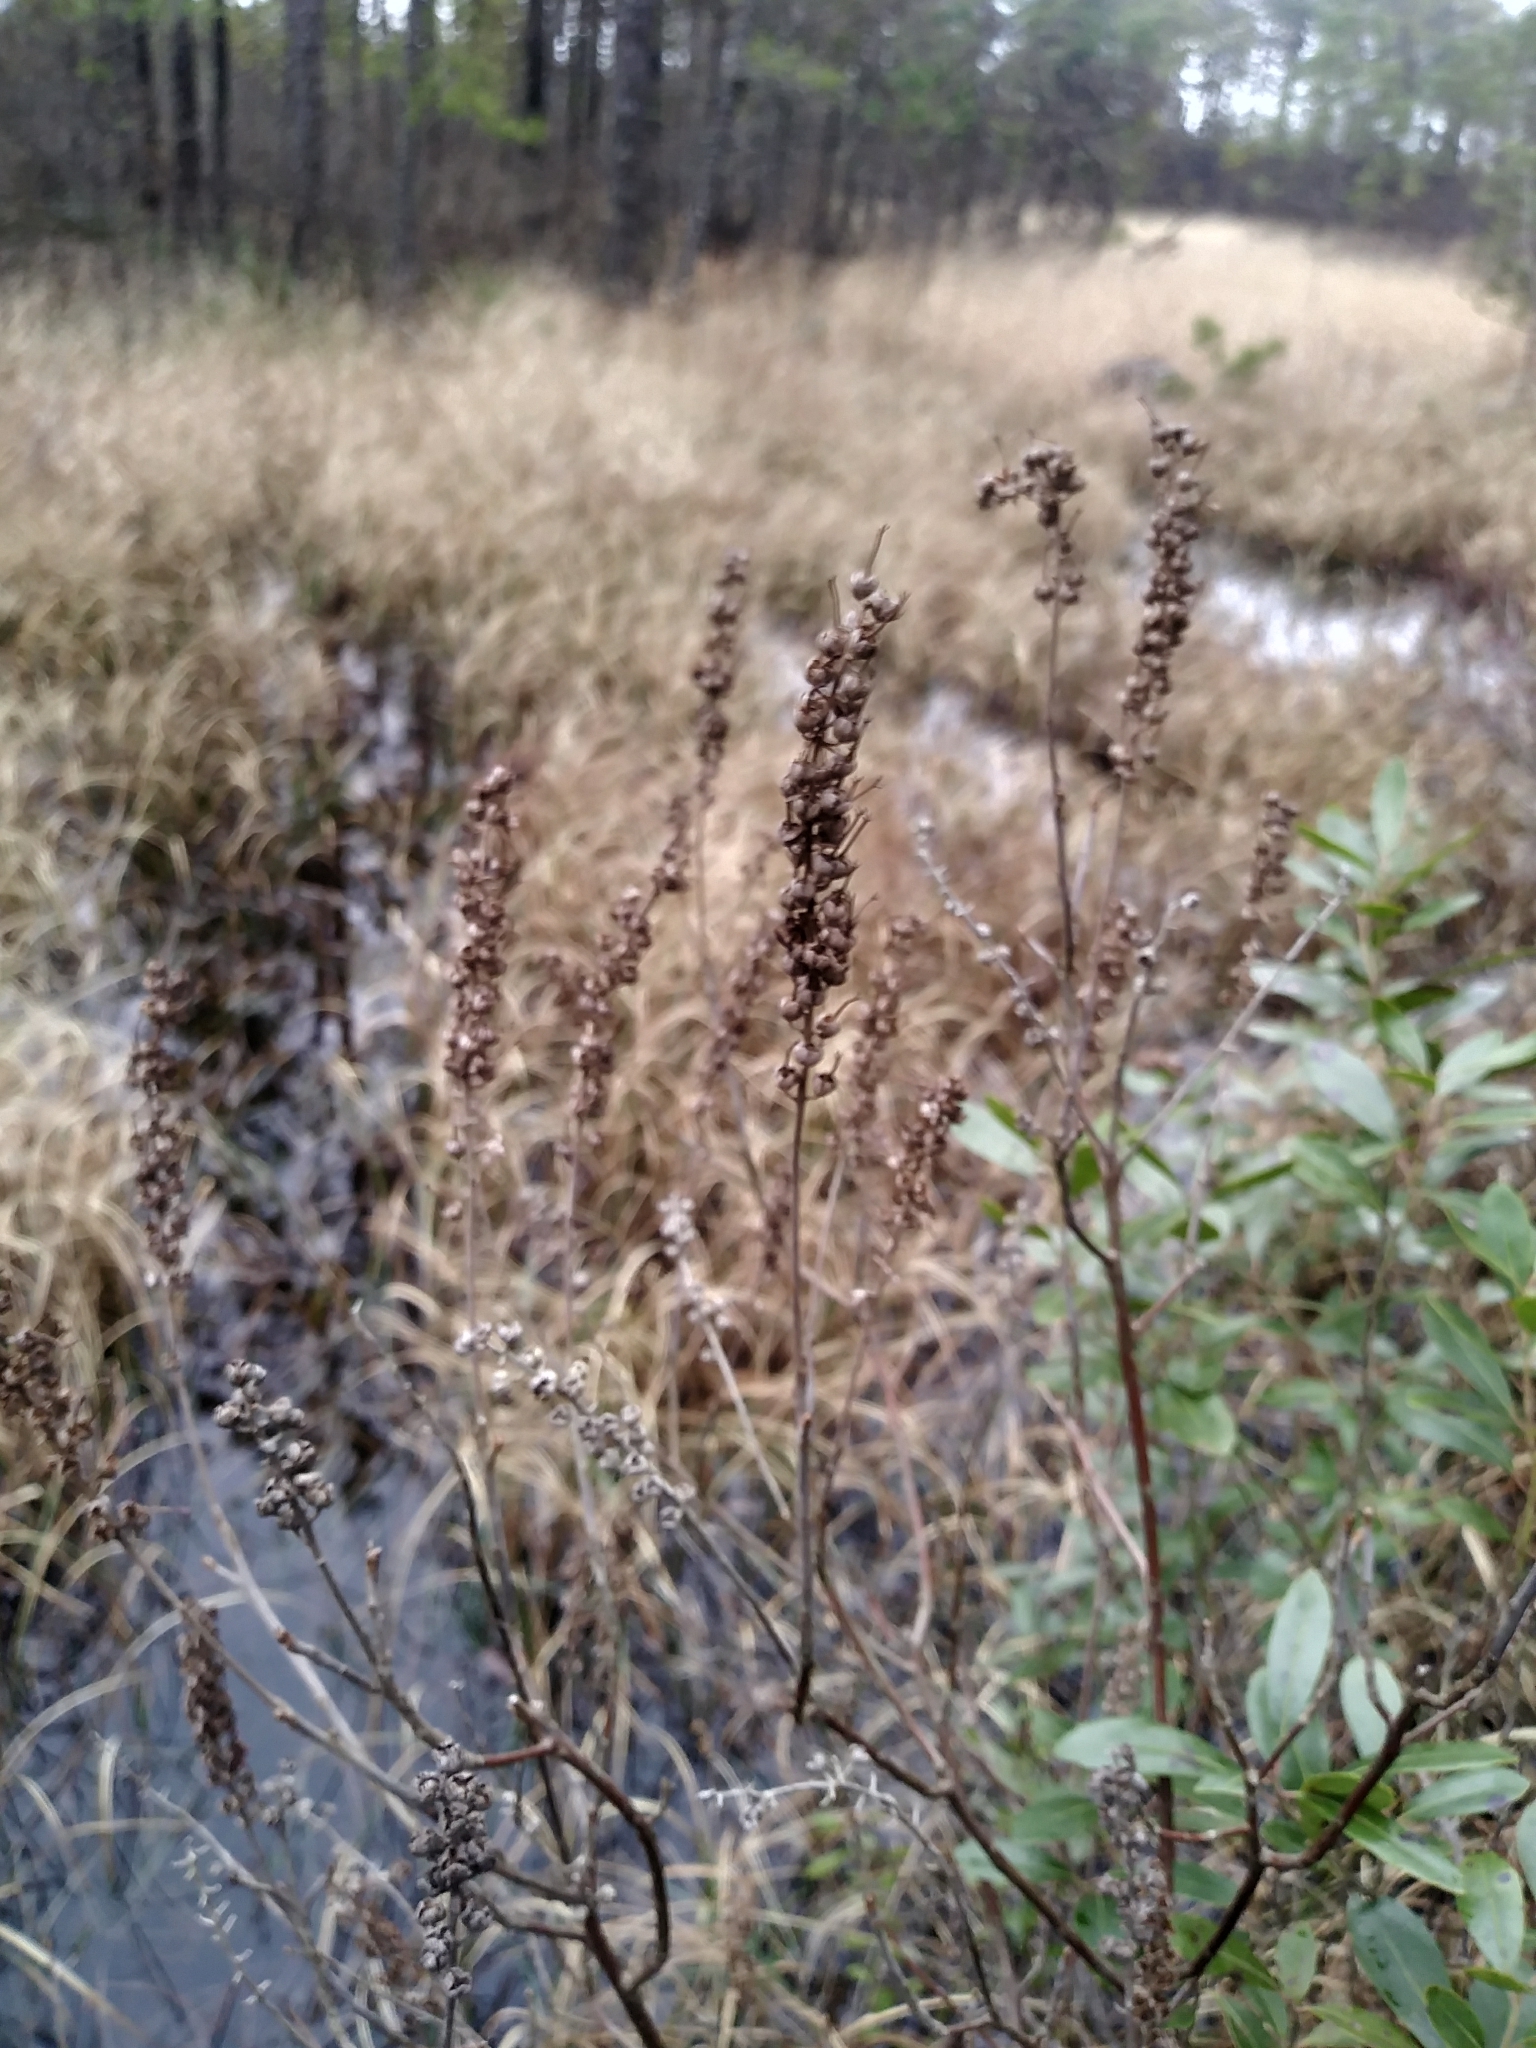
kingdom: Plantae
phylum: Tracheophyta
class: Magnoliopsida
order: Ericales
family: Clethraceae
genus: Clethra
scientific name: Clethra alnifolia
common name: Sweet pepperbush
